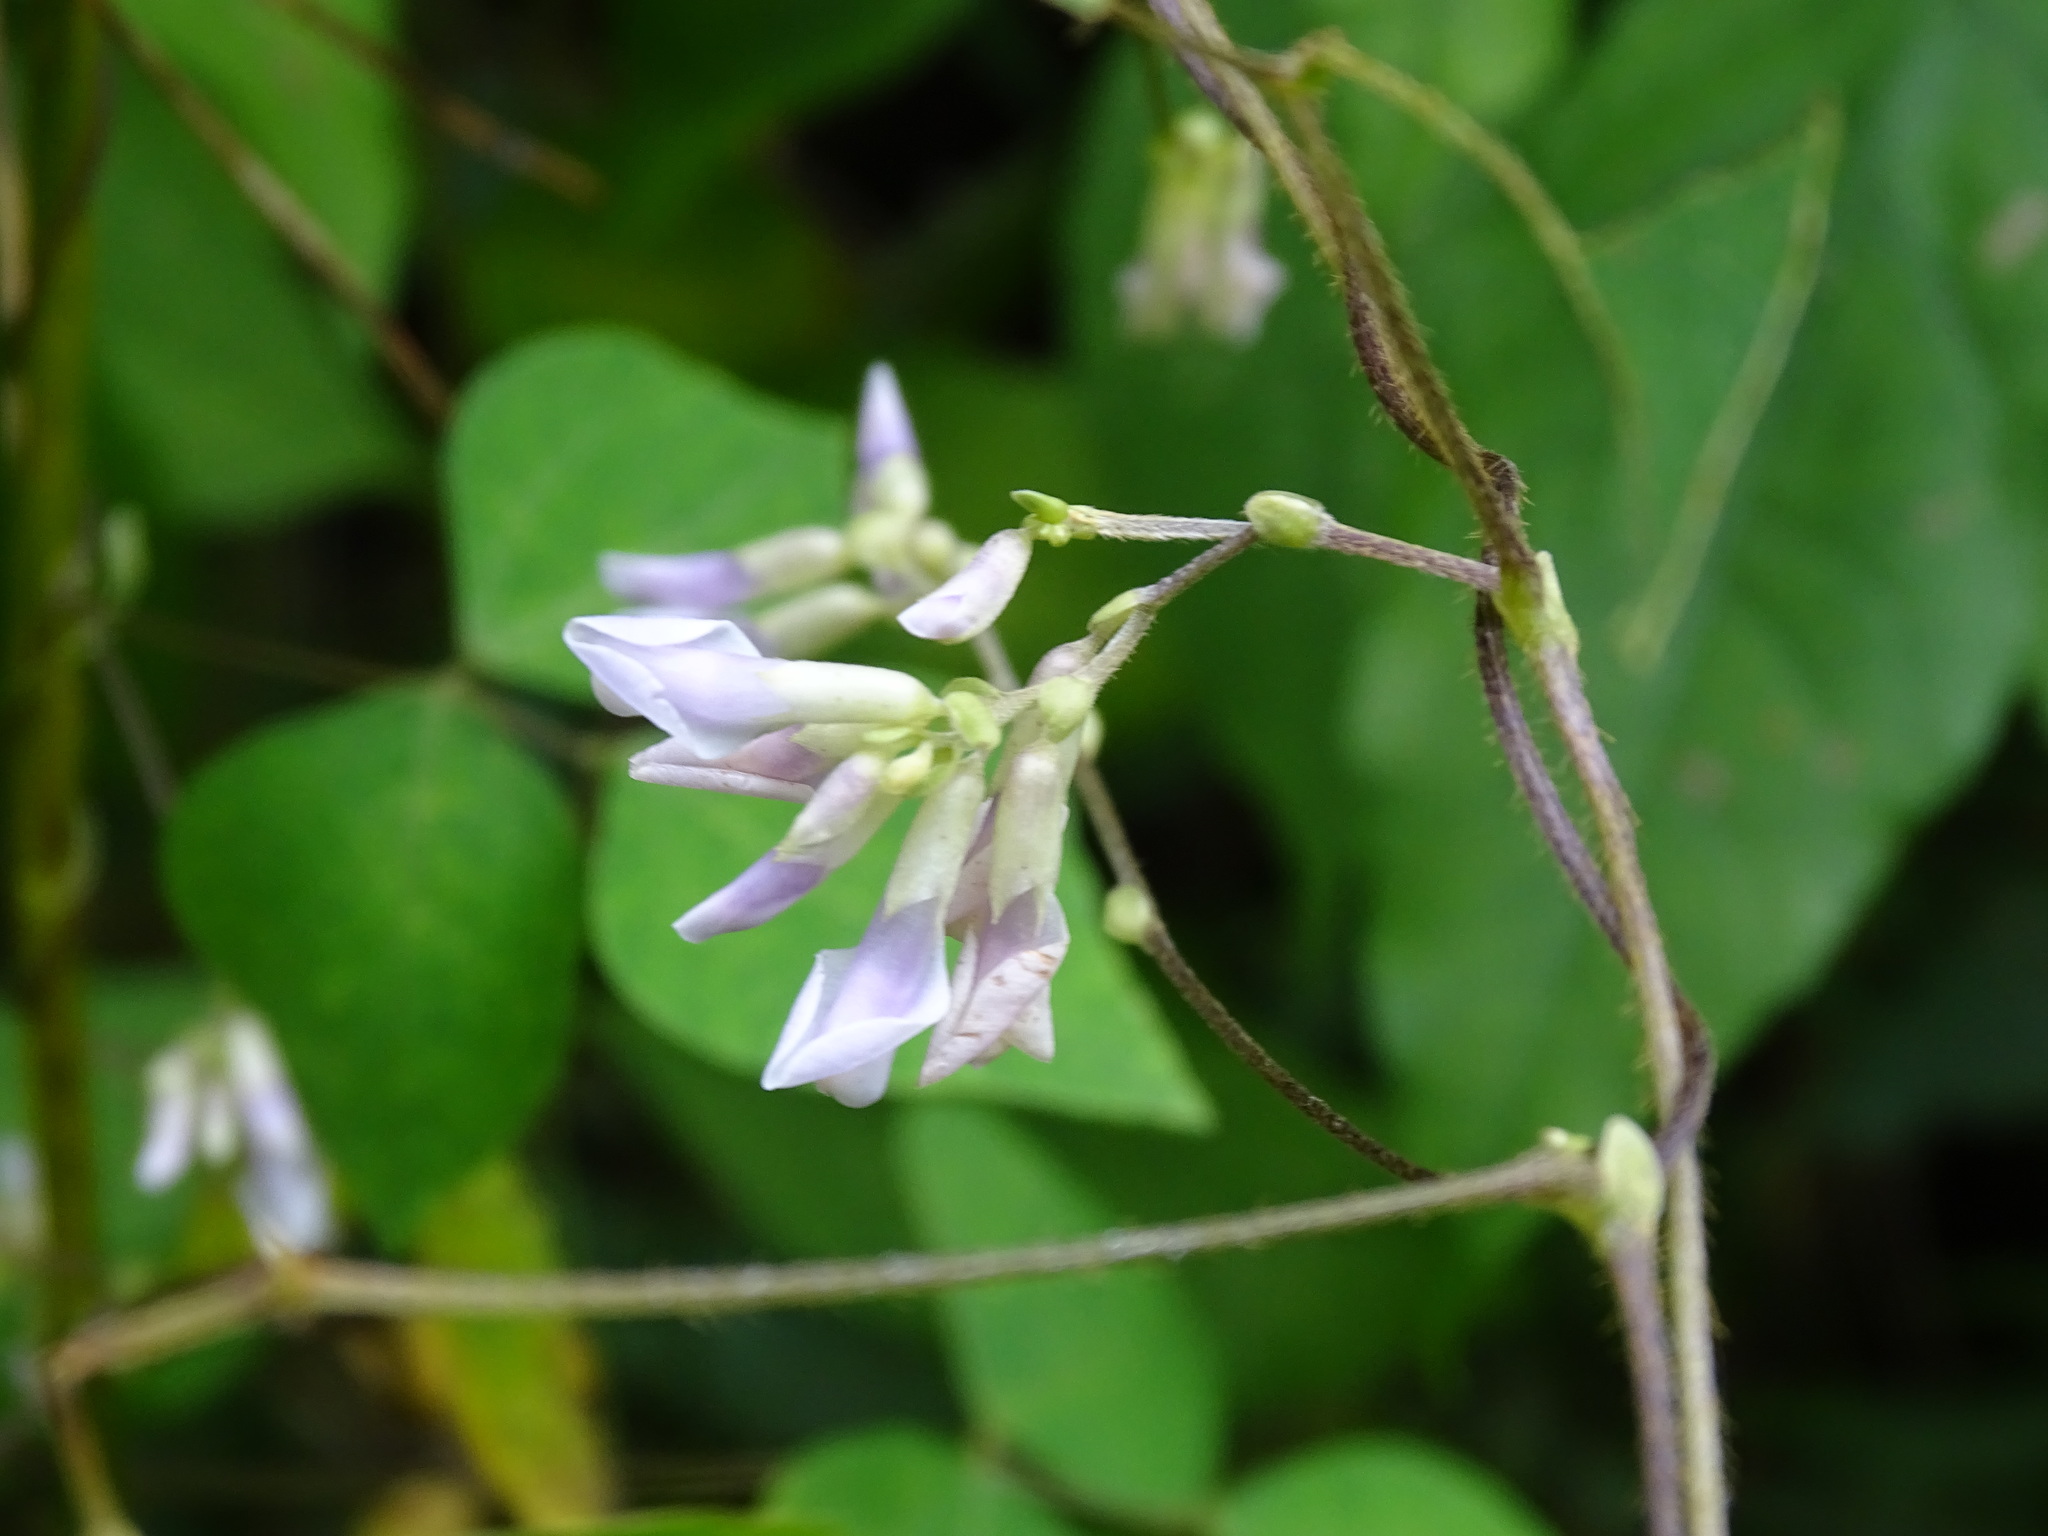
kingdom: Plantae
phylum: Tracheophyta
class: Magnoliopsida
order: Fabales
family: Fabaceae
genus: Amphicarpaea
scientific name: Amphicarpaea bracteata
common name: American hog peanut
